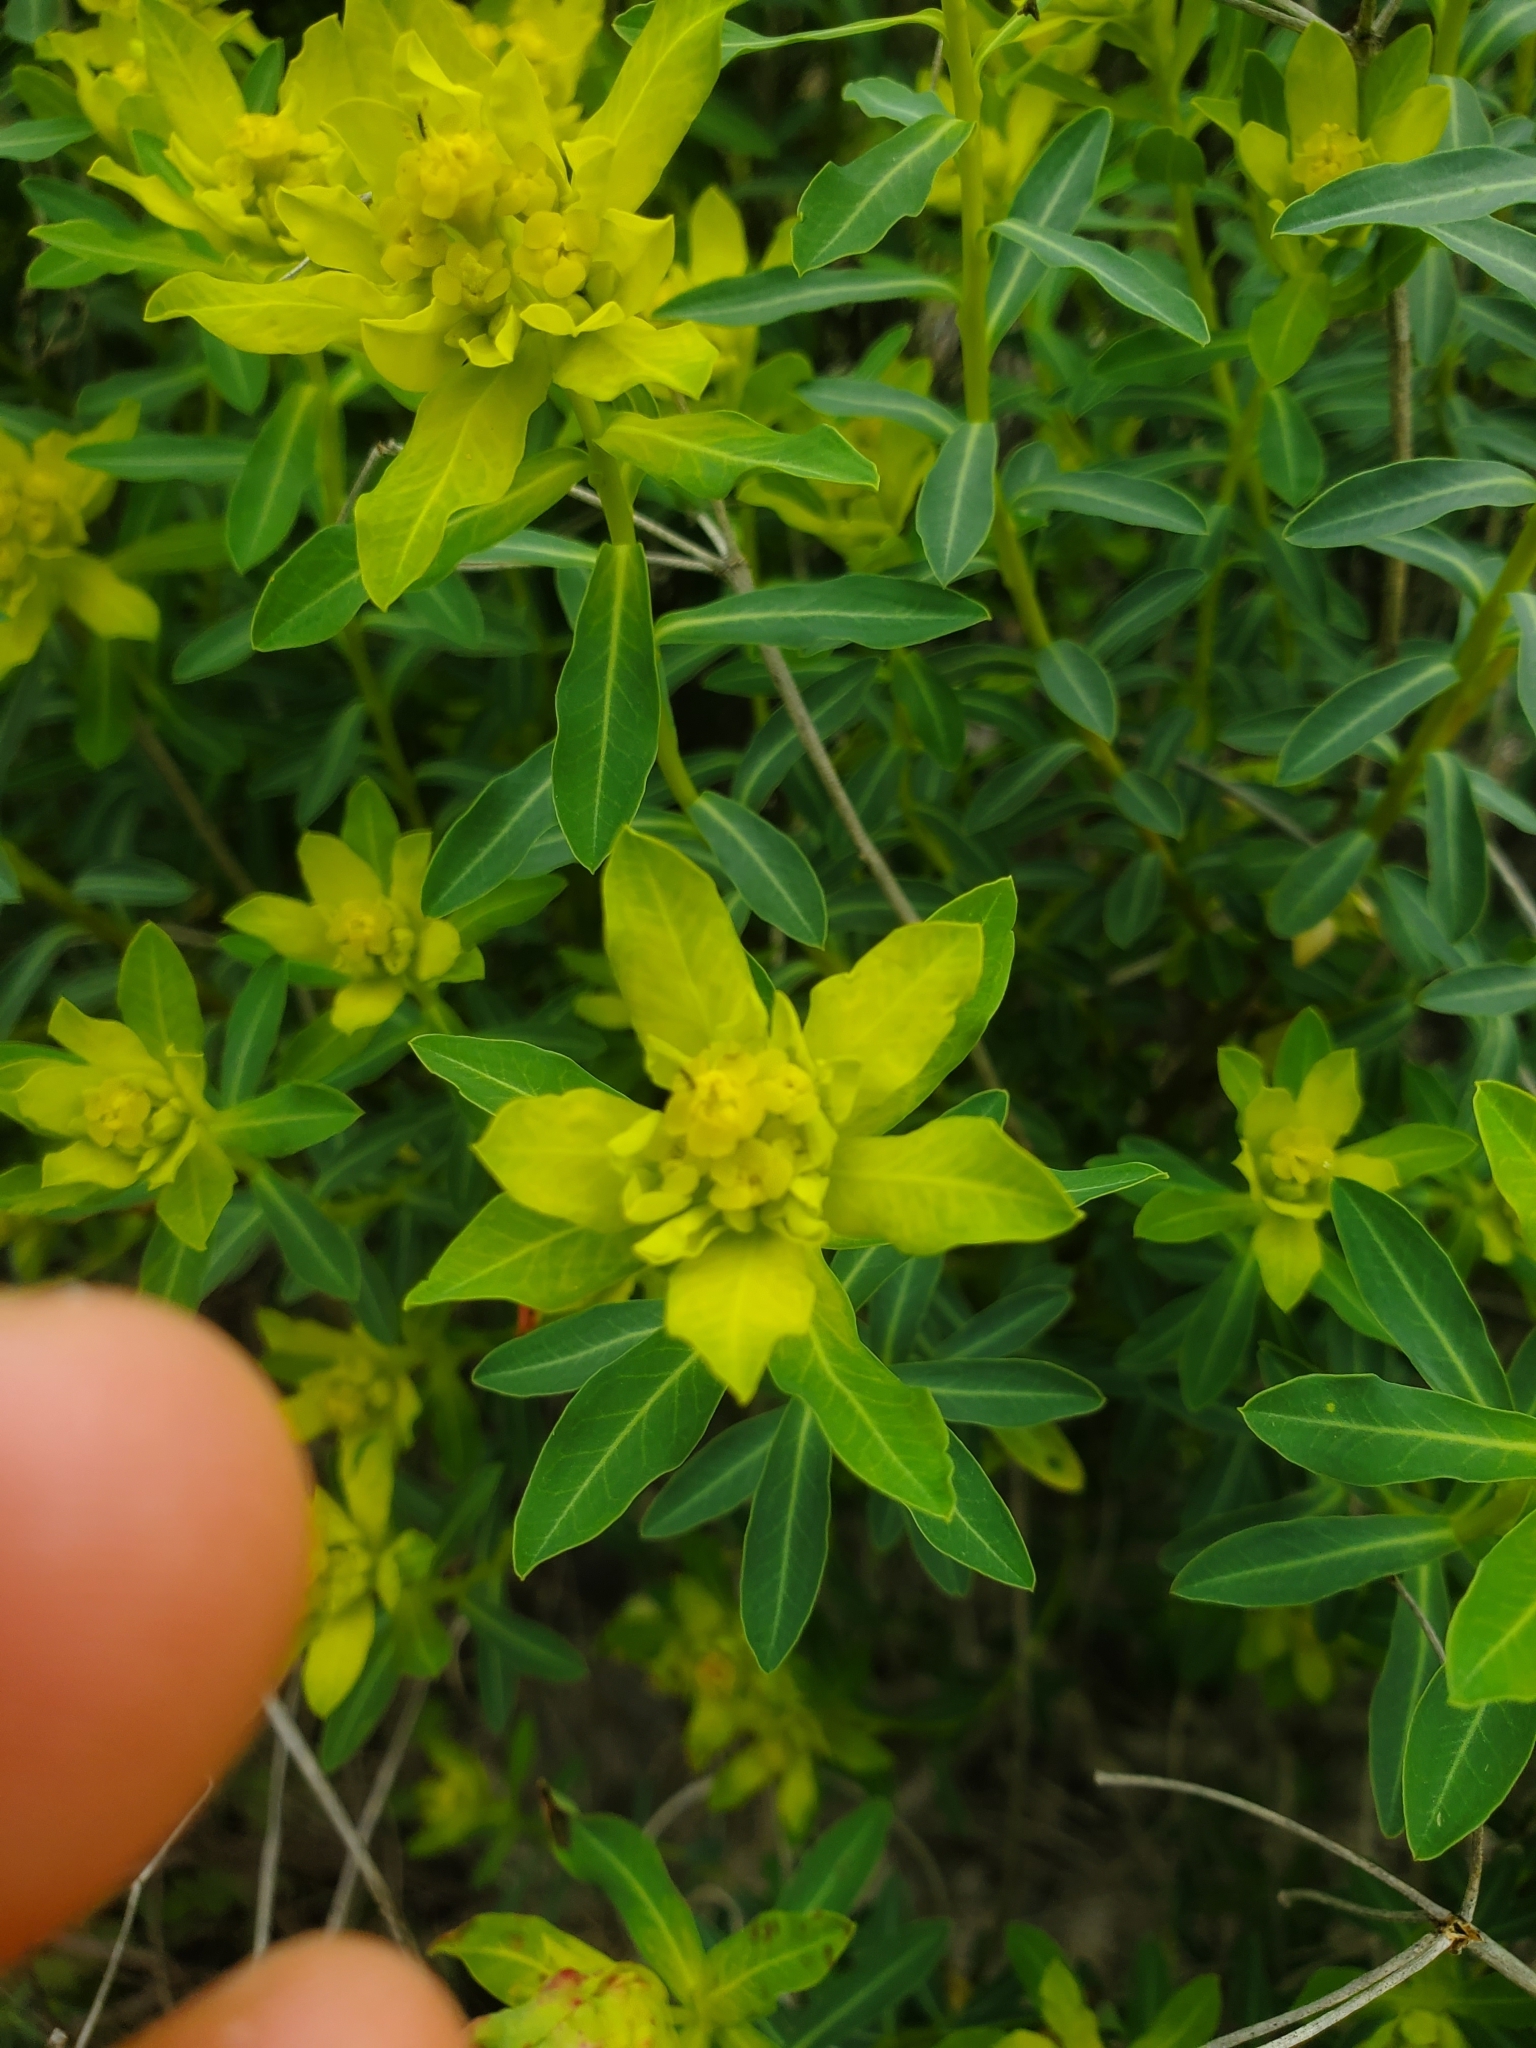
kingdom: Plantae
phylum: Tracheophyta
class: Magnoliopsida
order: Malpighiales
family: Euphorbiaceae
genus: Euphorbia
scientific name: Euphorbia hierosolymitana
